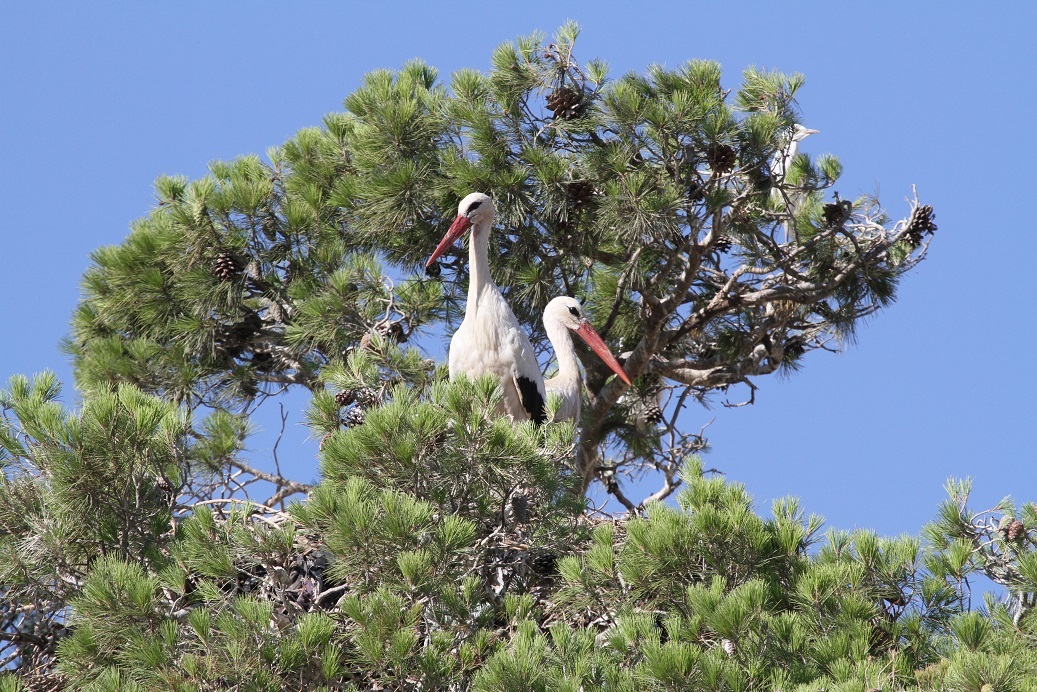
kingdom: Animalia
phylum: Chordata
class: Aves
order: Ciconiiformes
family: Ciconiidae
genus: Ciconia
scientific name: Ciconia ciconia
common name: White stork
